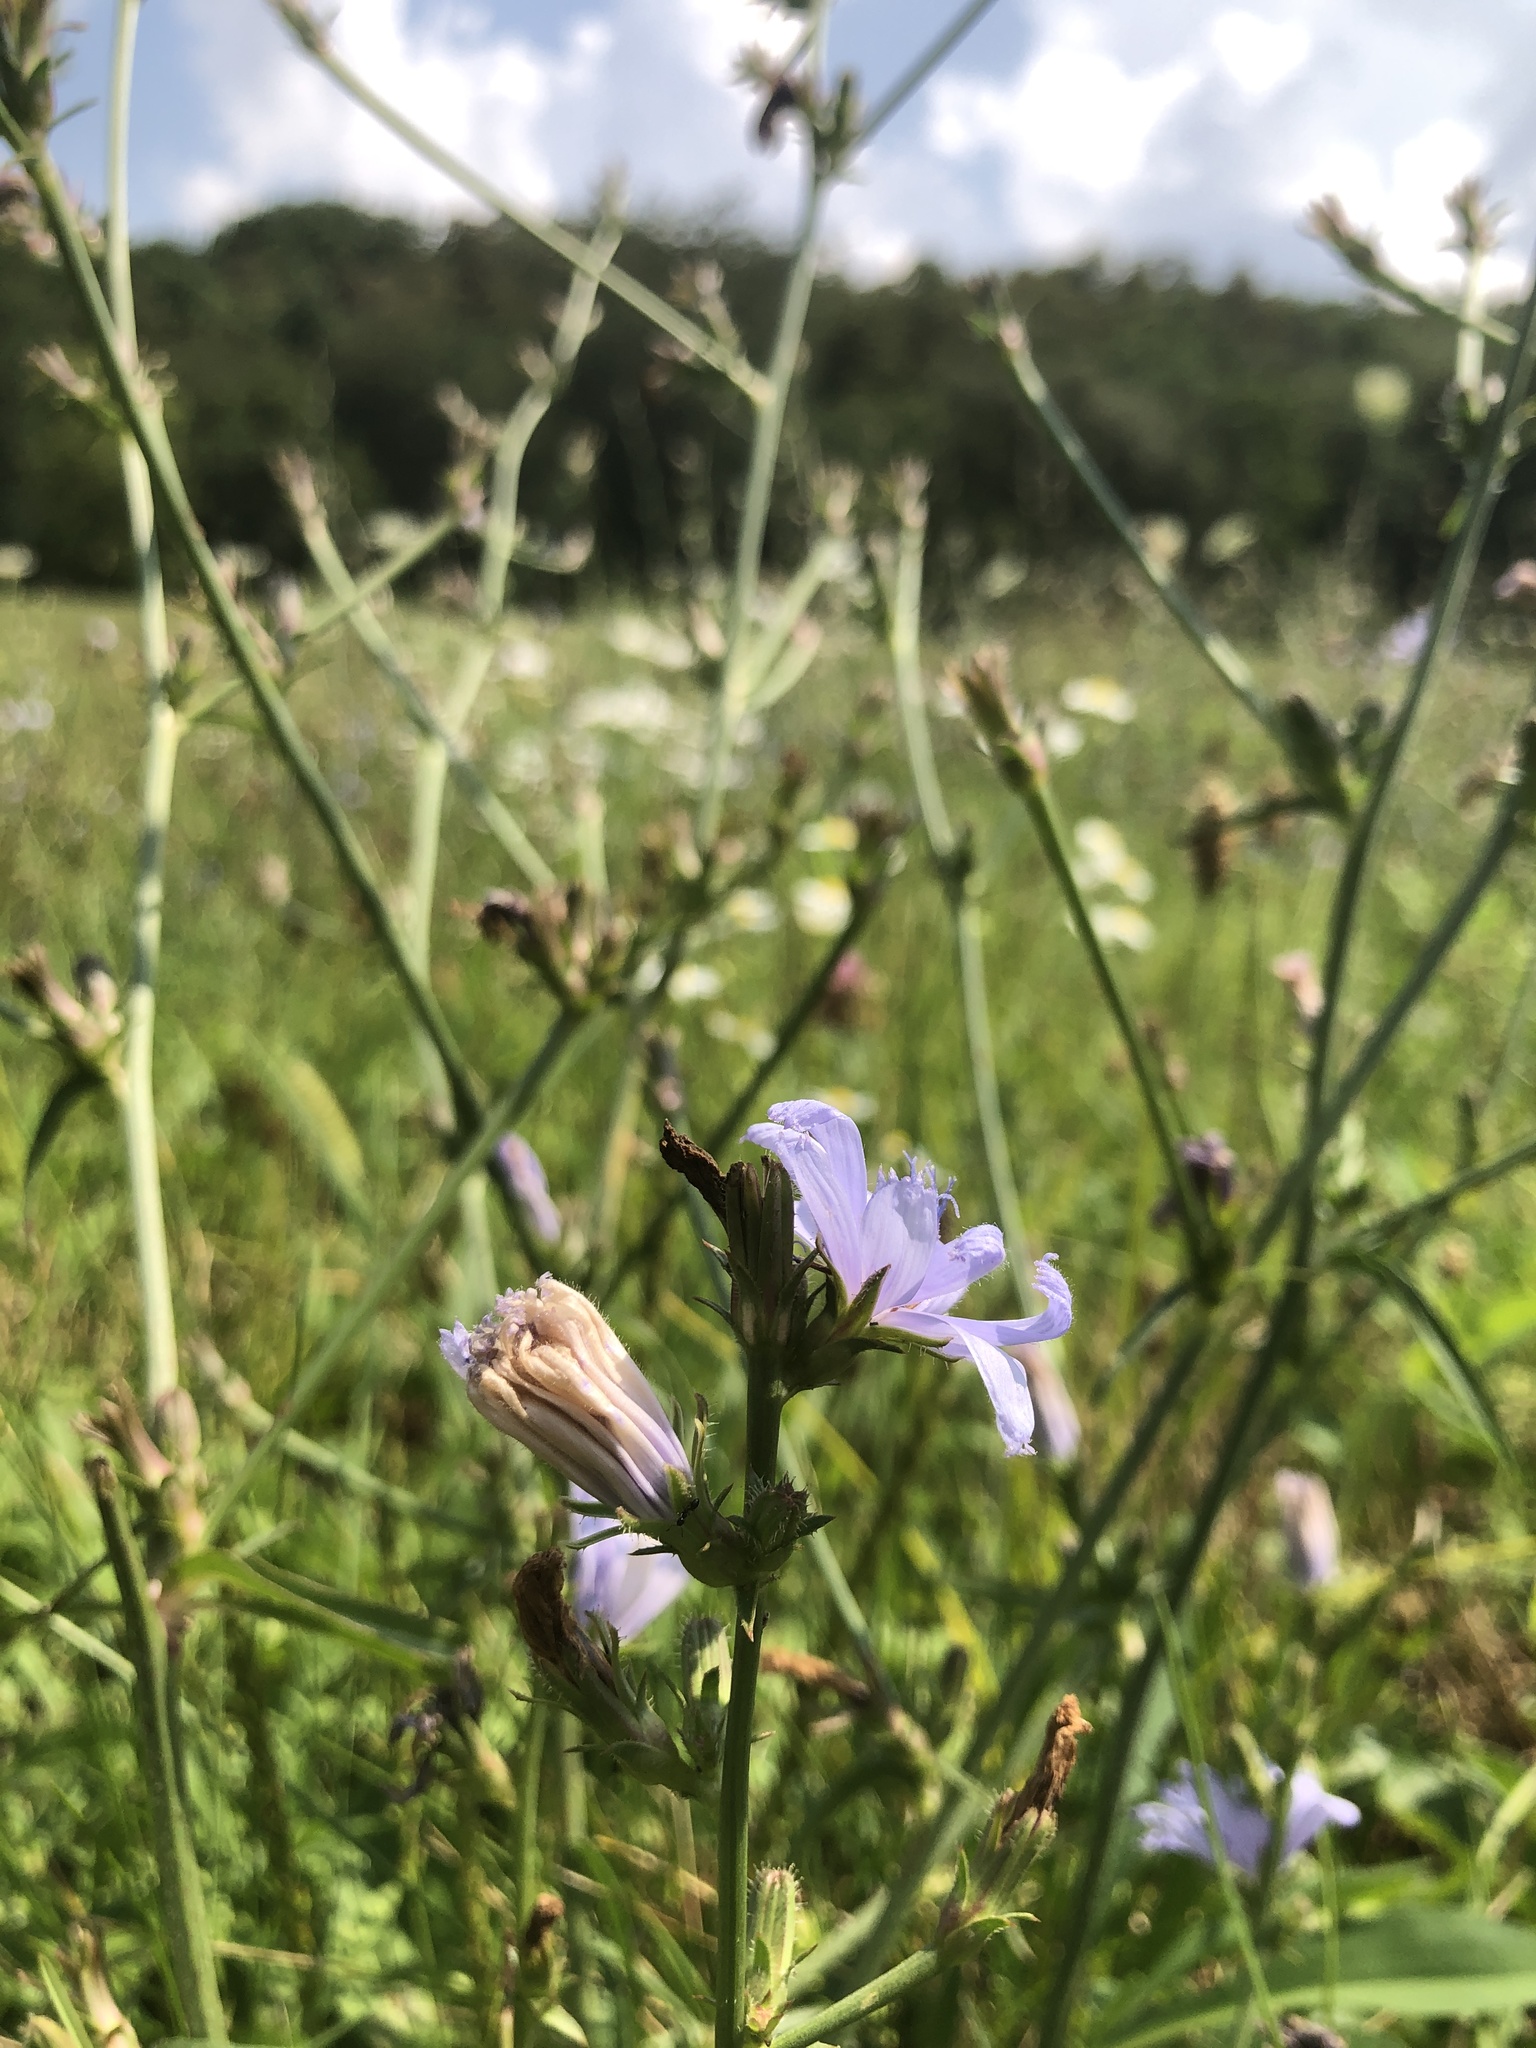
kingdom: Plantae
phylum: Tracheophyta
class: Magnoliopsida
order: Asterales
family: Asteraceae
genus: Cichorium
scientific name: Cichorium intybus
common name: Chicory
